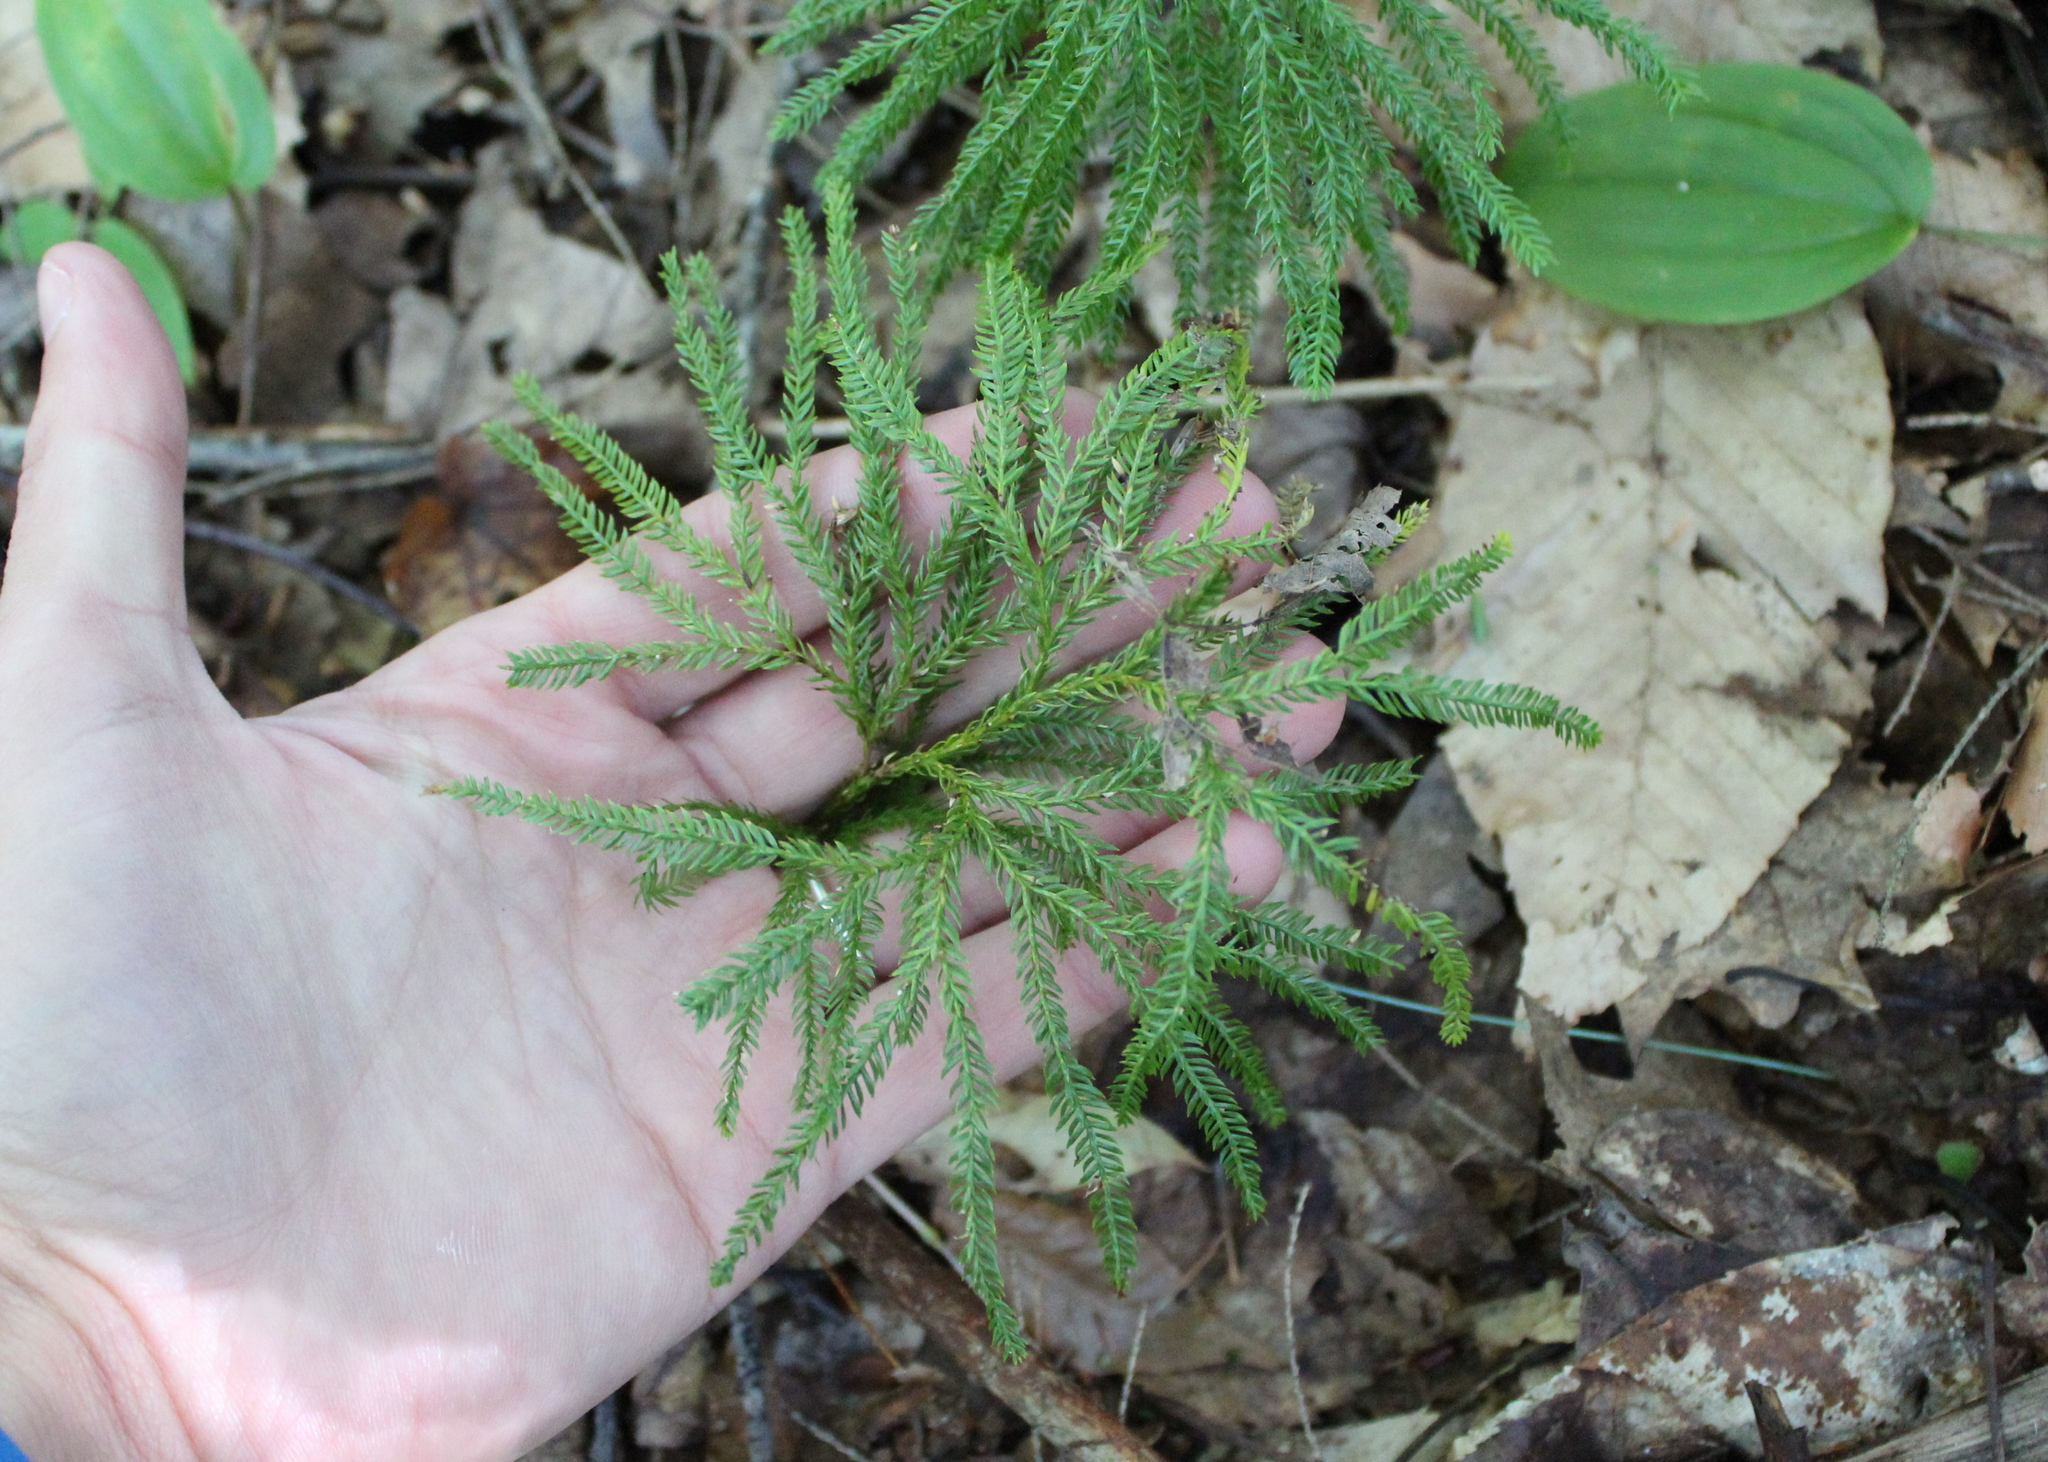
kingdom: Plantae
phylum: Tracheophyta
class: Lycopodiopsida
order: Lycopodiales
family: Lycopodiaceae
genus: Dendrolycopodium
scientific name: Dendrolycopodium obscurum
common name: Common ground-pine
